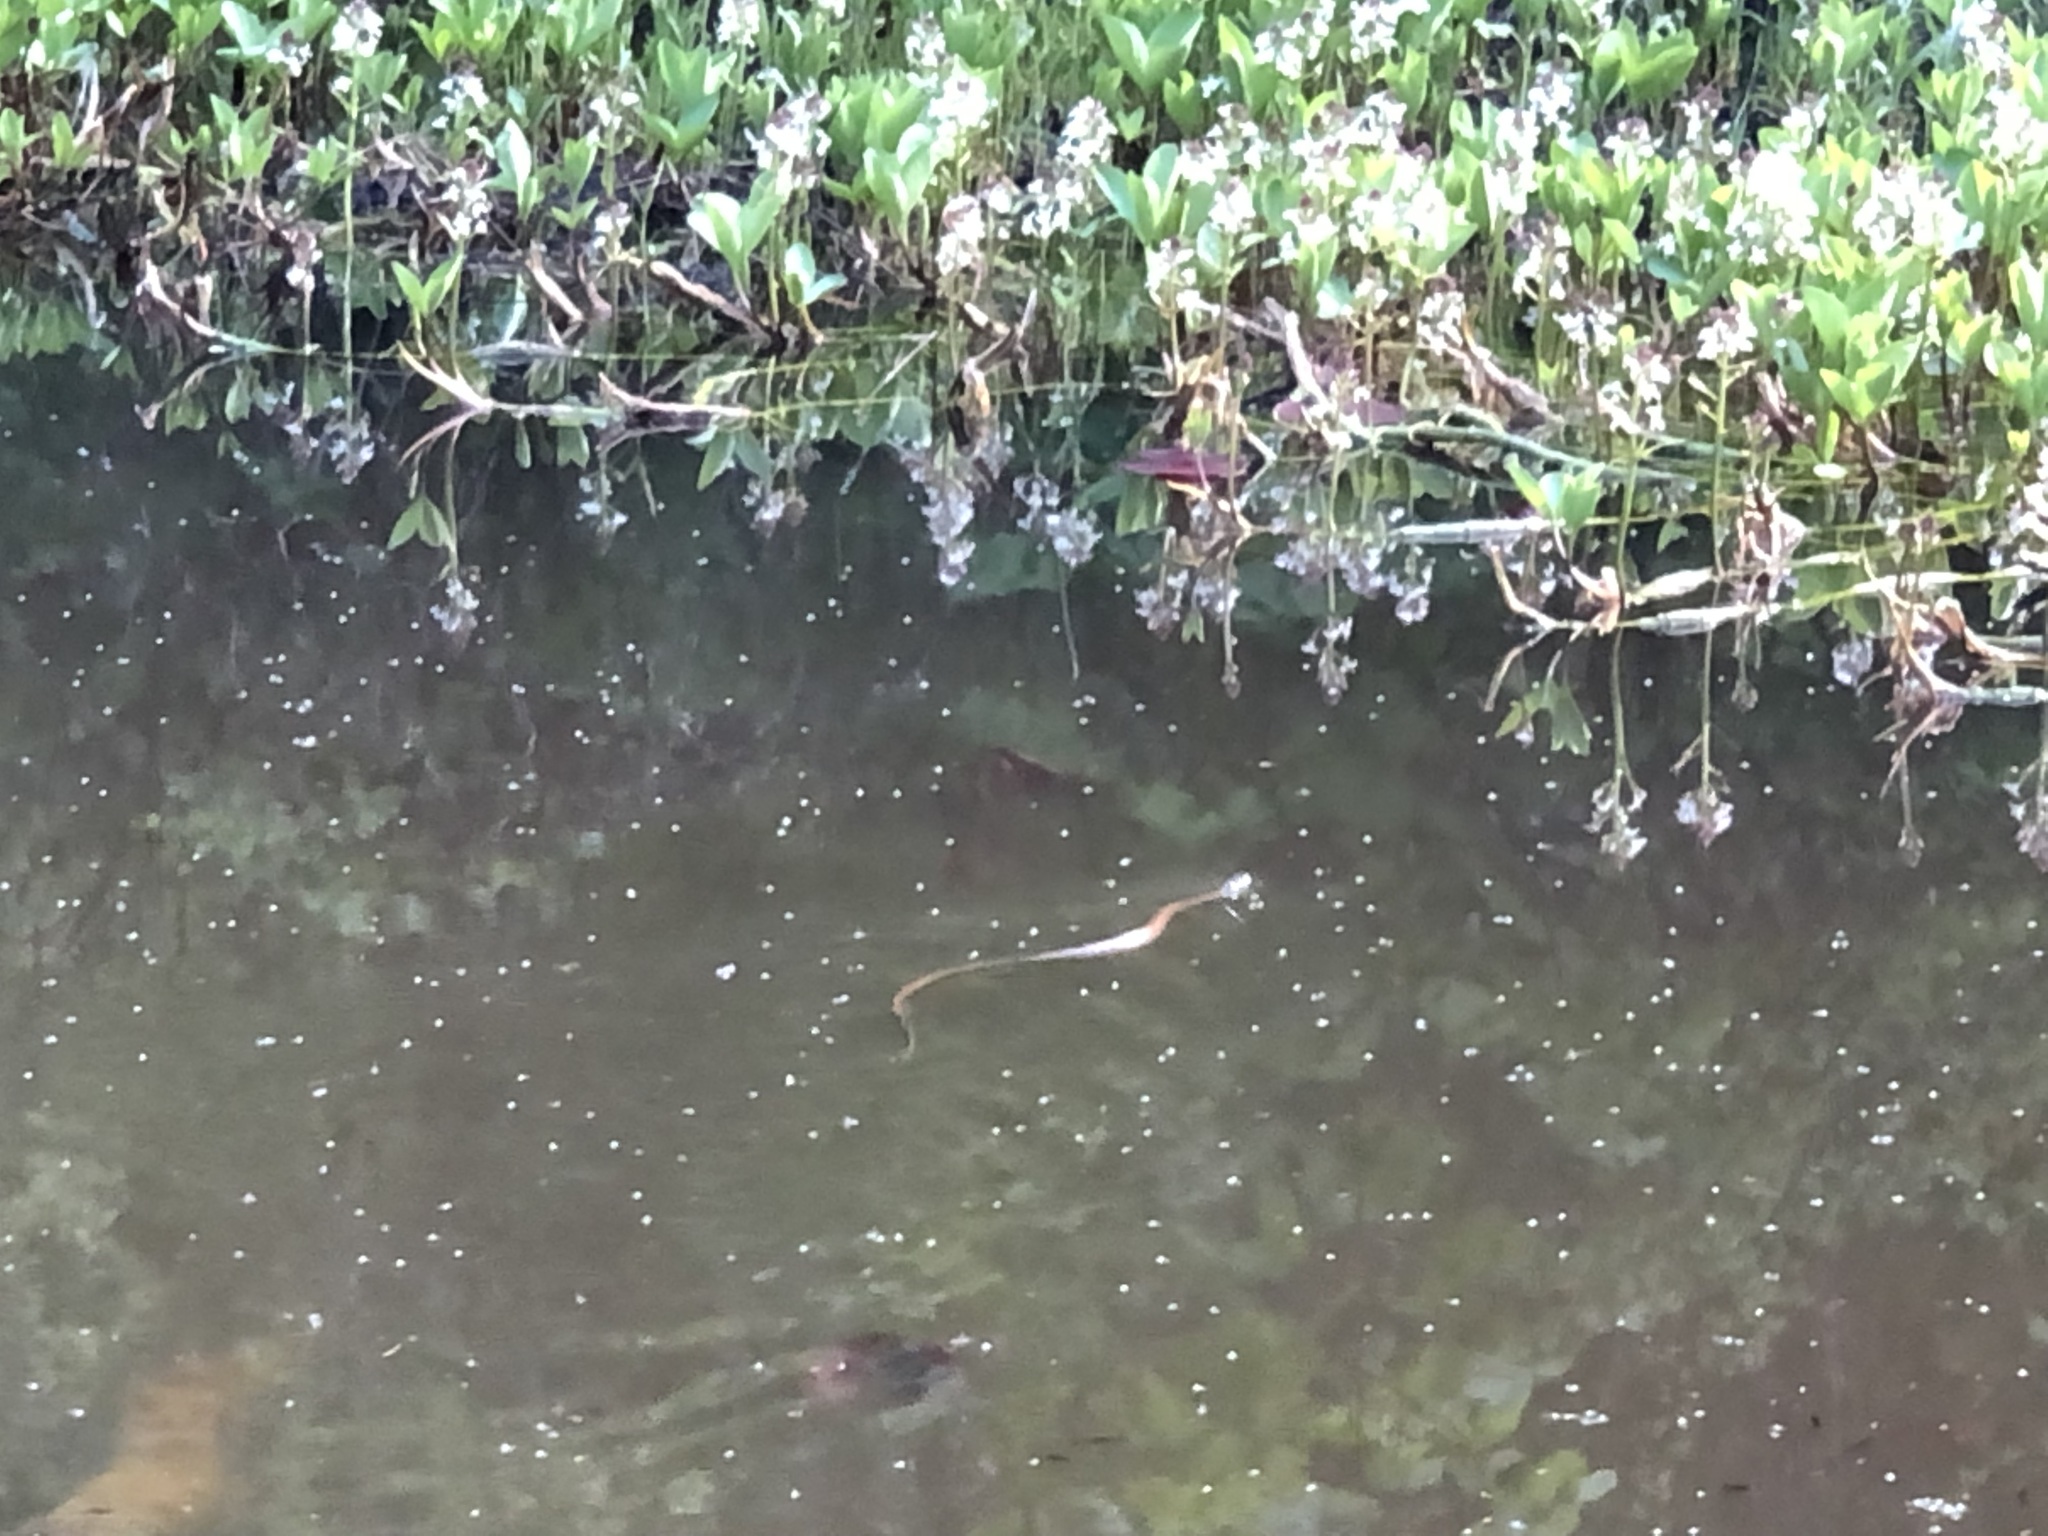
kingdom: Animalia
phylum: Chordata
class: Squamata
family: Colubridae
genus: Natrix
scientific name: Natrix helvetica
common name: Banded grass snake
